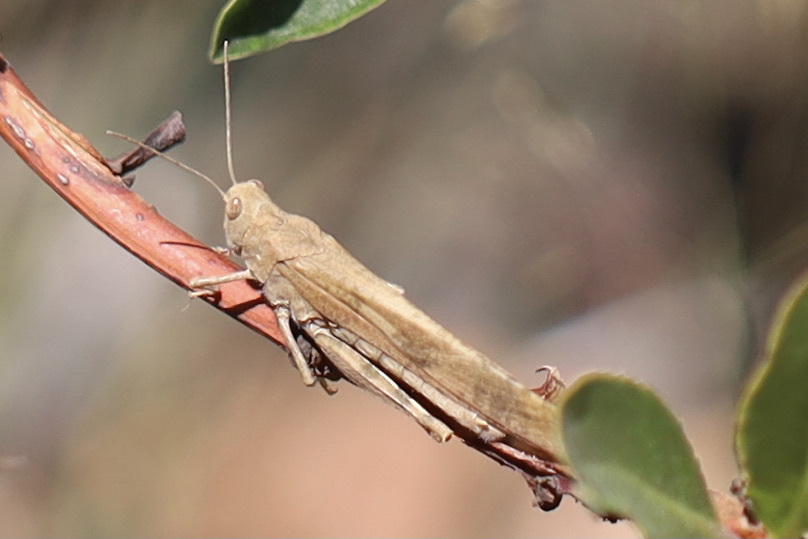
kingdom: Animalia
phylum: Arthropoda
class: Insecta
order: Orthoptera
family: Acrididae
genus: Dissosteira
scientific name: Dissosteira carolina
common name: Carolina grasshopper
